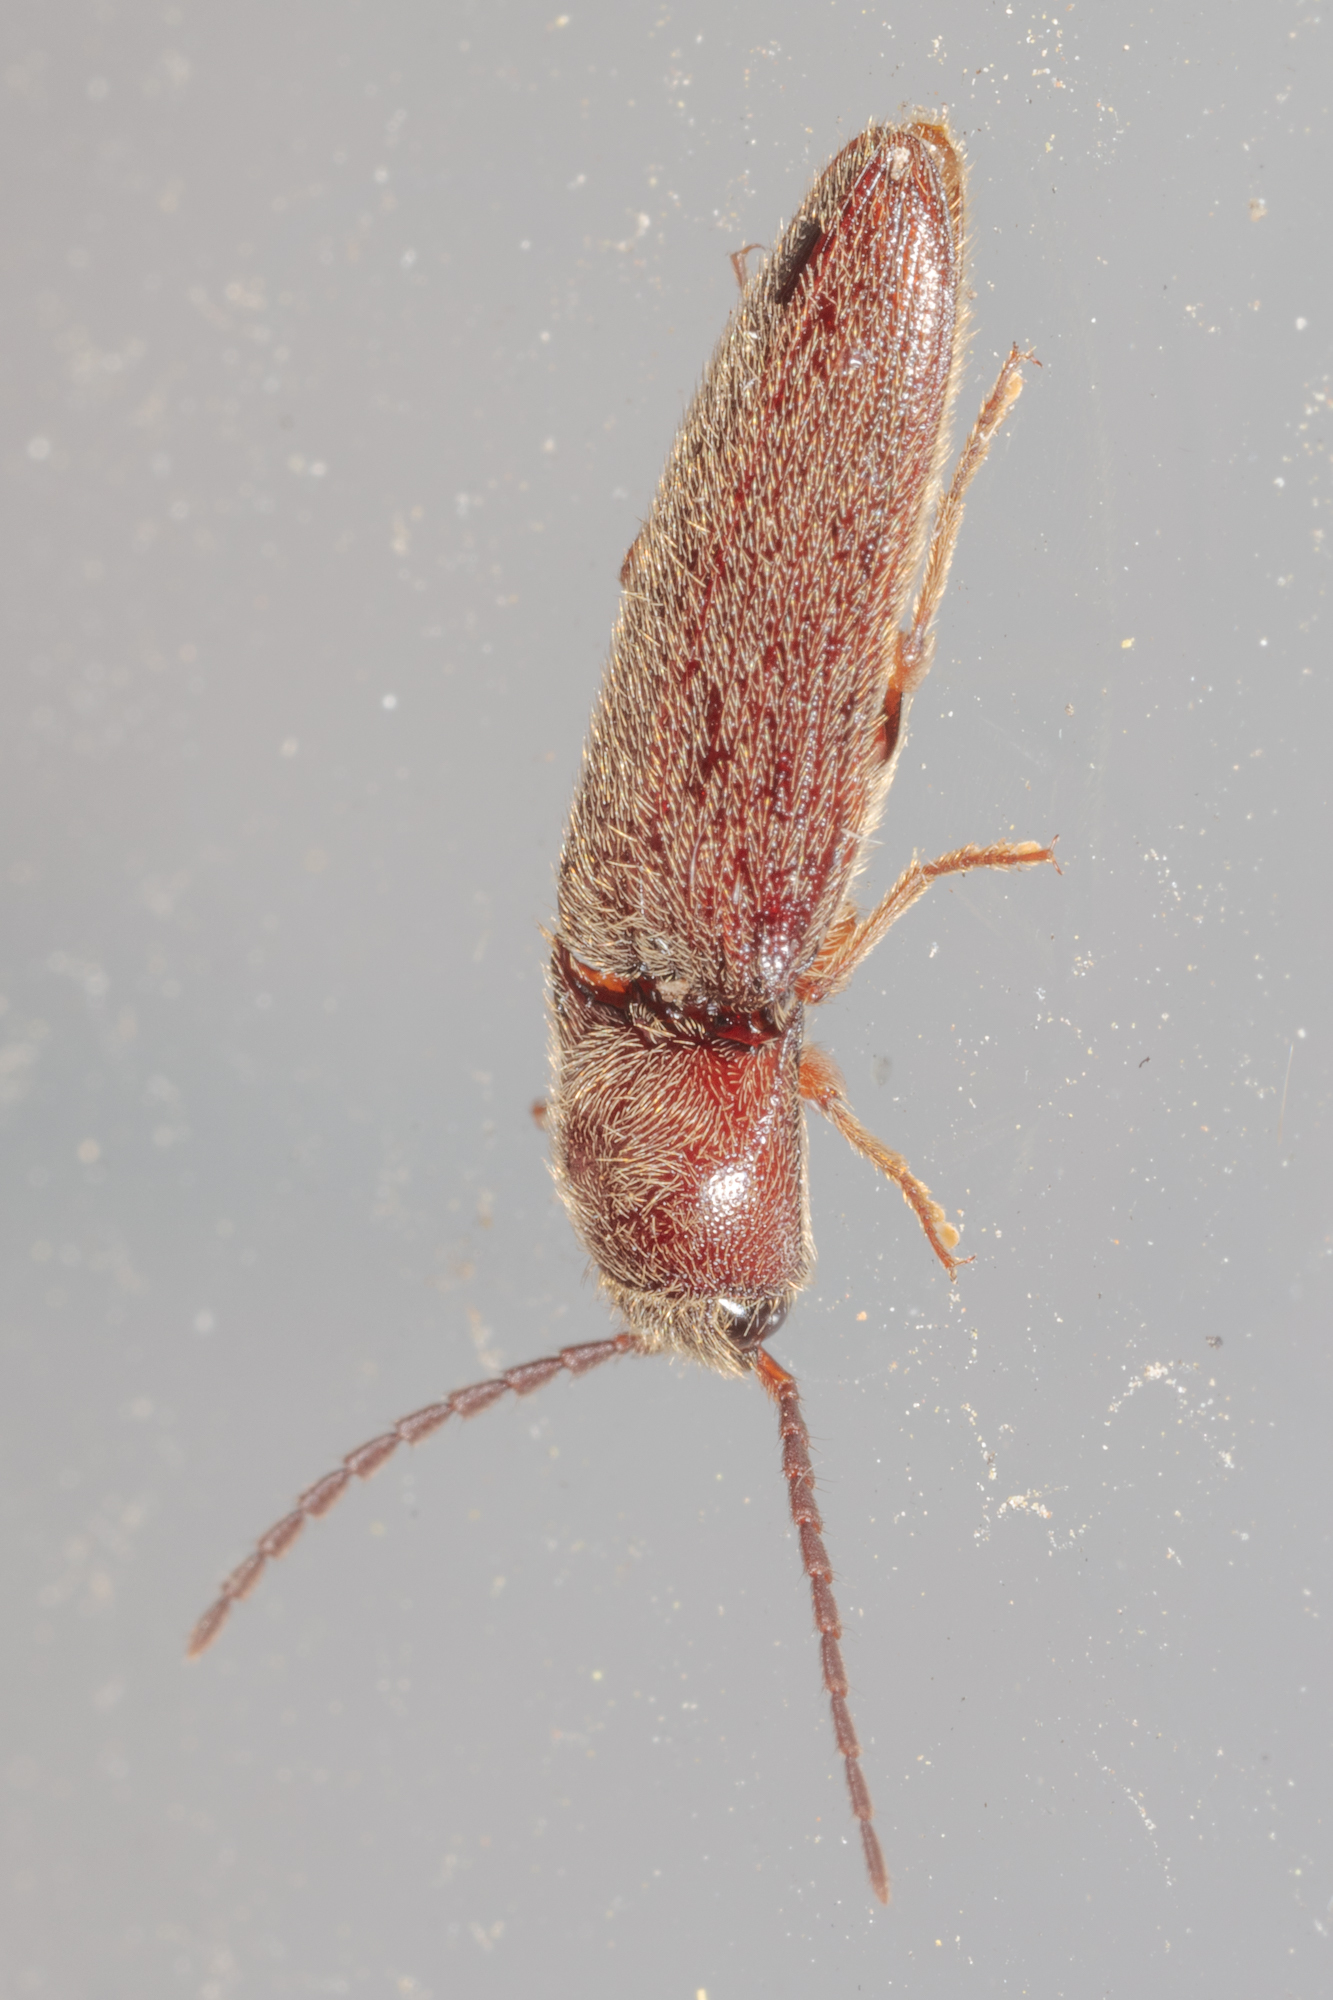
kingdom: Animalia
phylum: Arthropoda
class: Insecta
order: Coleoptera
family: Elateridae
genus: Dipropus
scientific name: Dipropus
